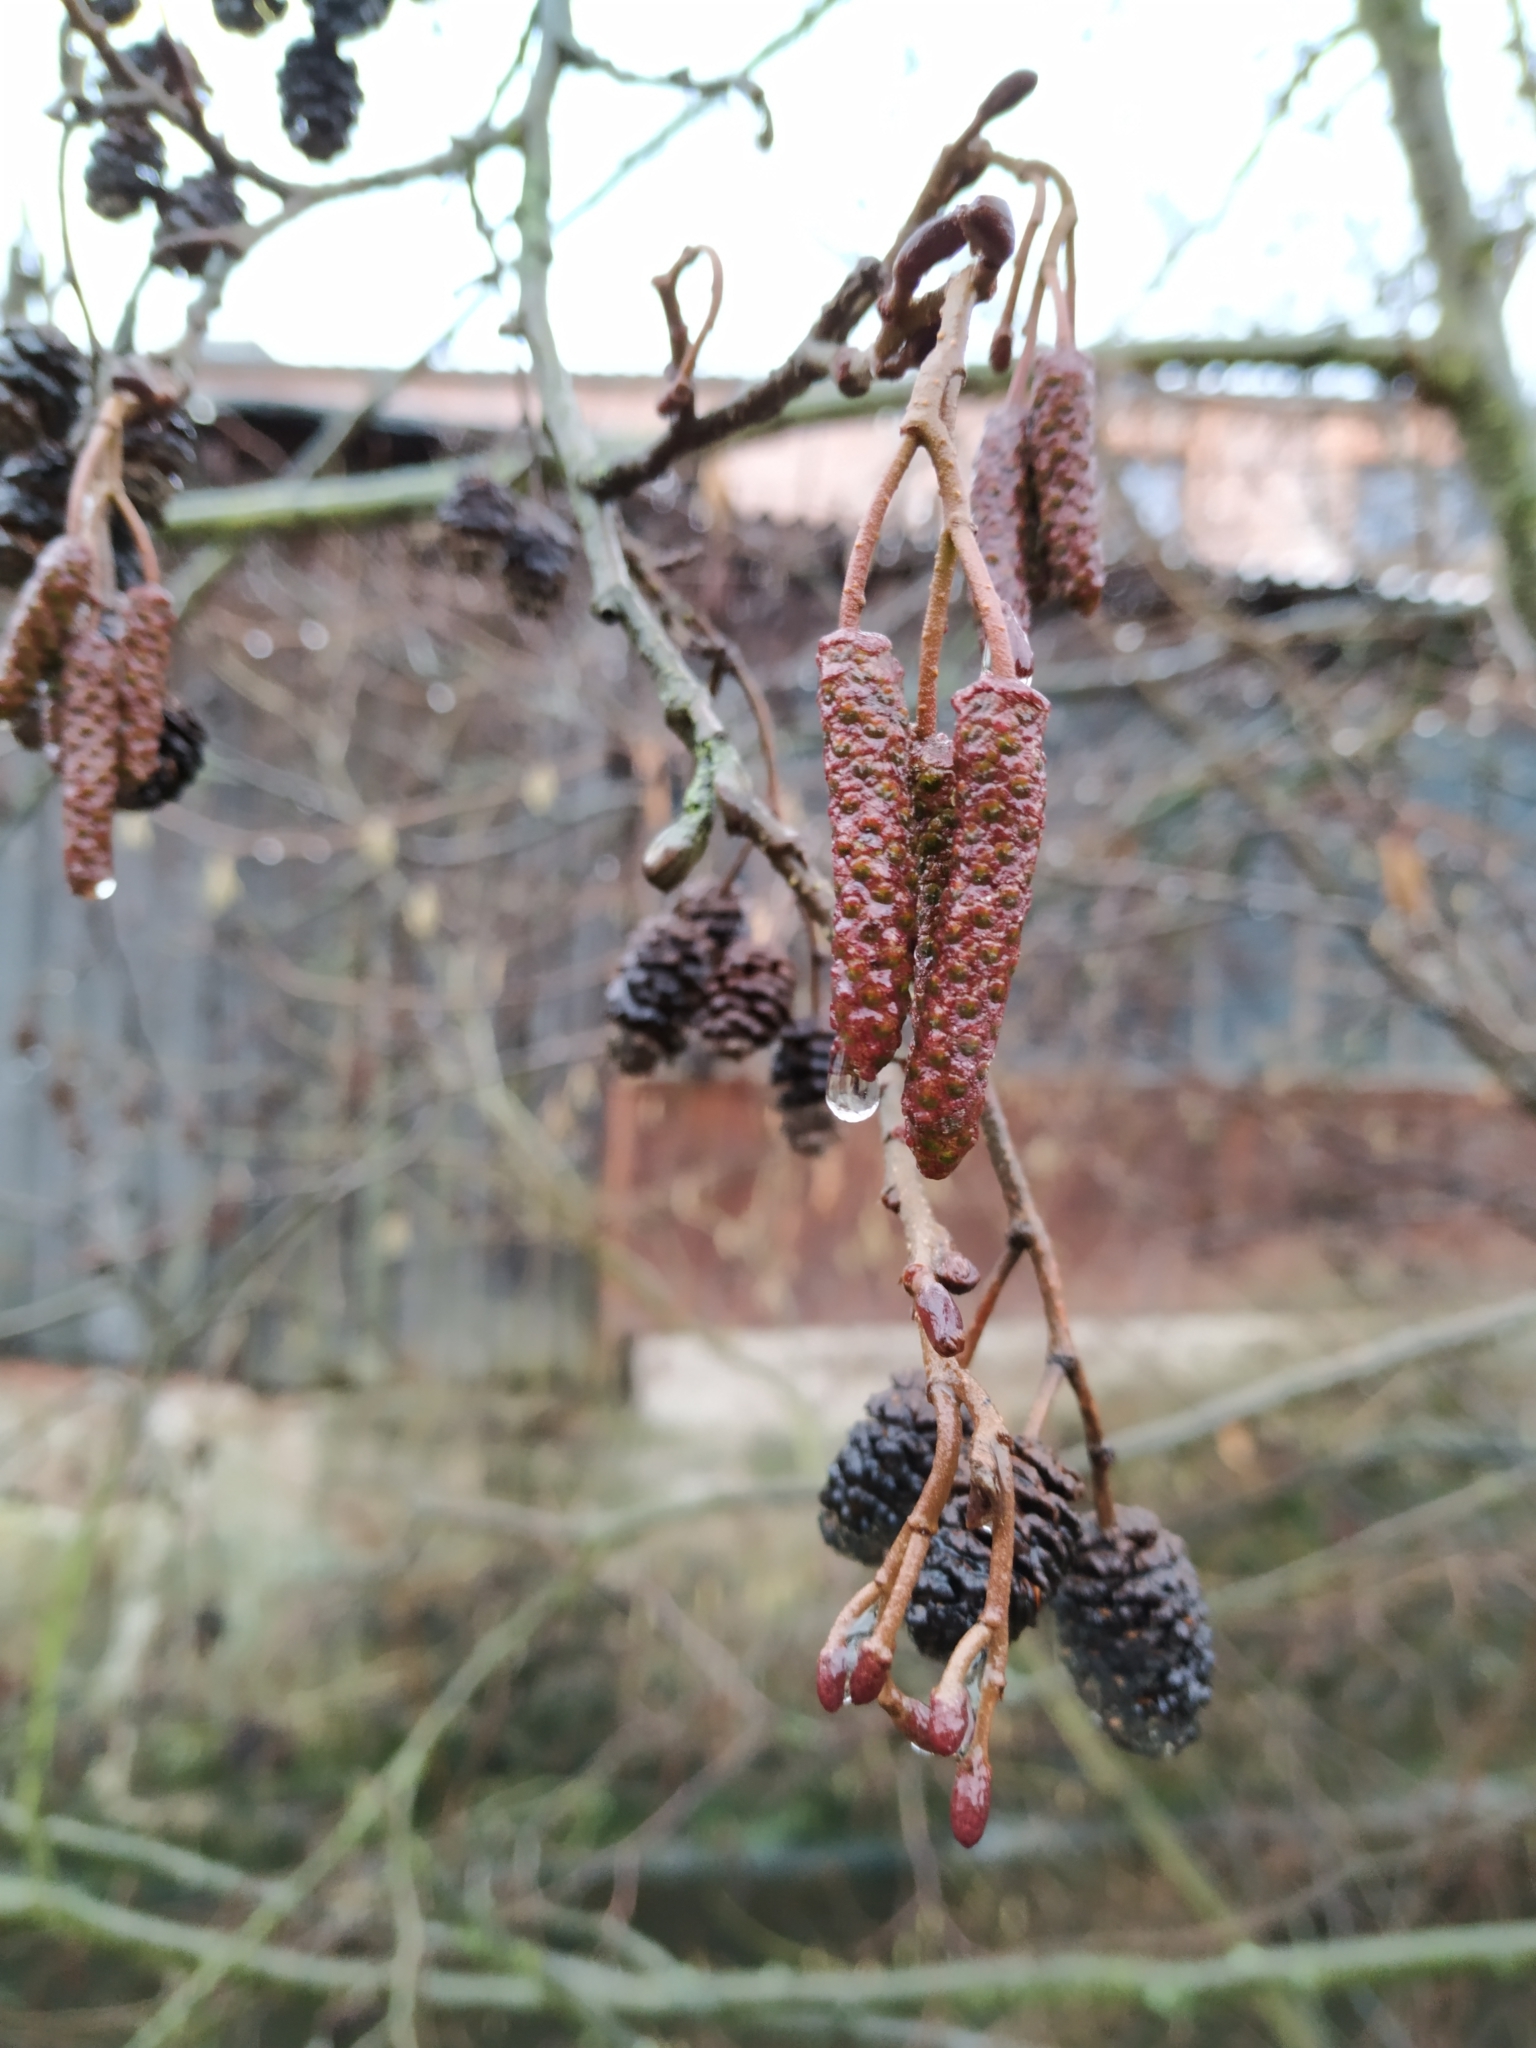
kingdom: Plantae
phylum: Tracheophyta
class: Magnoliopsida
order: Fagales
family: Betulaceae
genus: Alnus
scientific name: Alnus glutinosa
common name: Black alder
